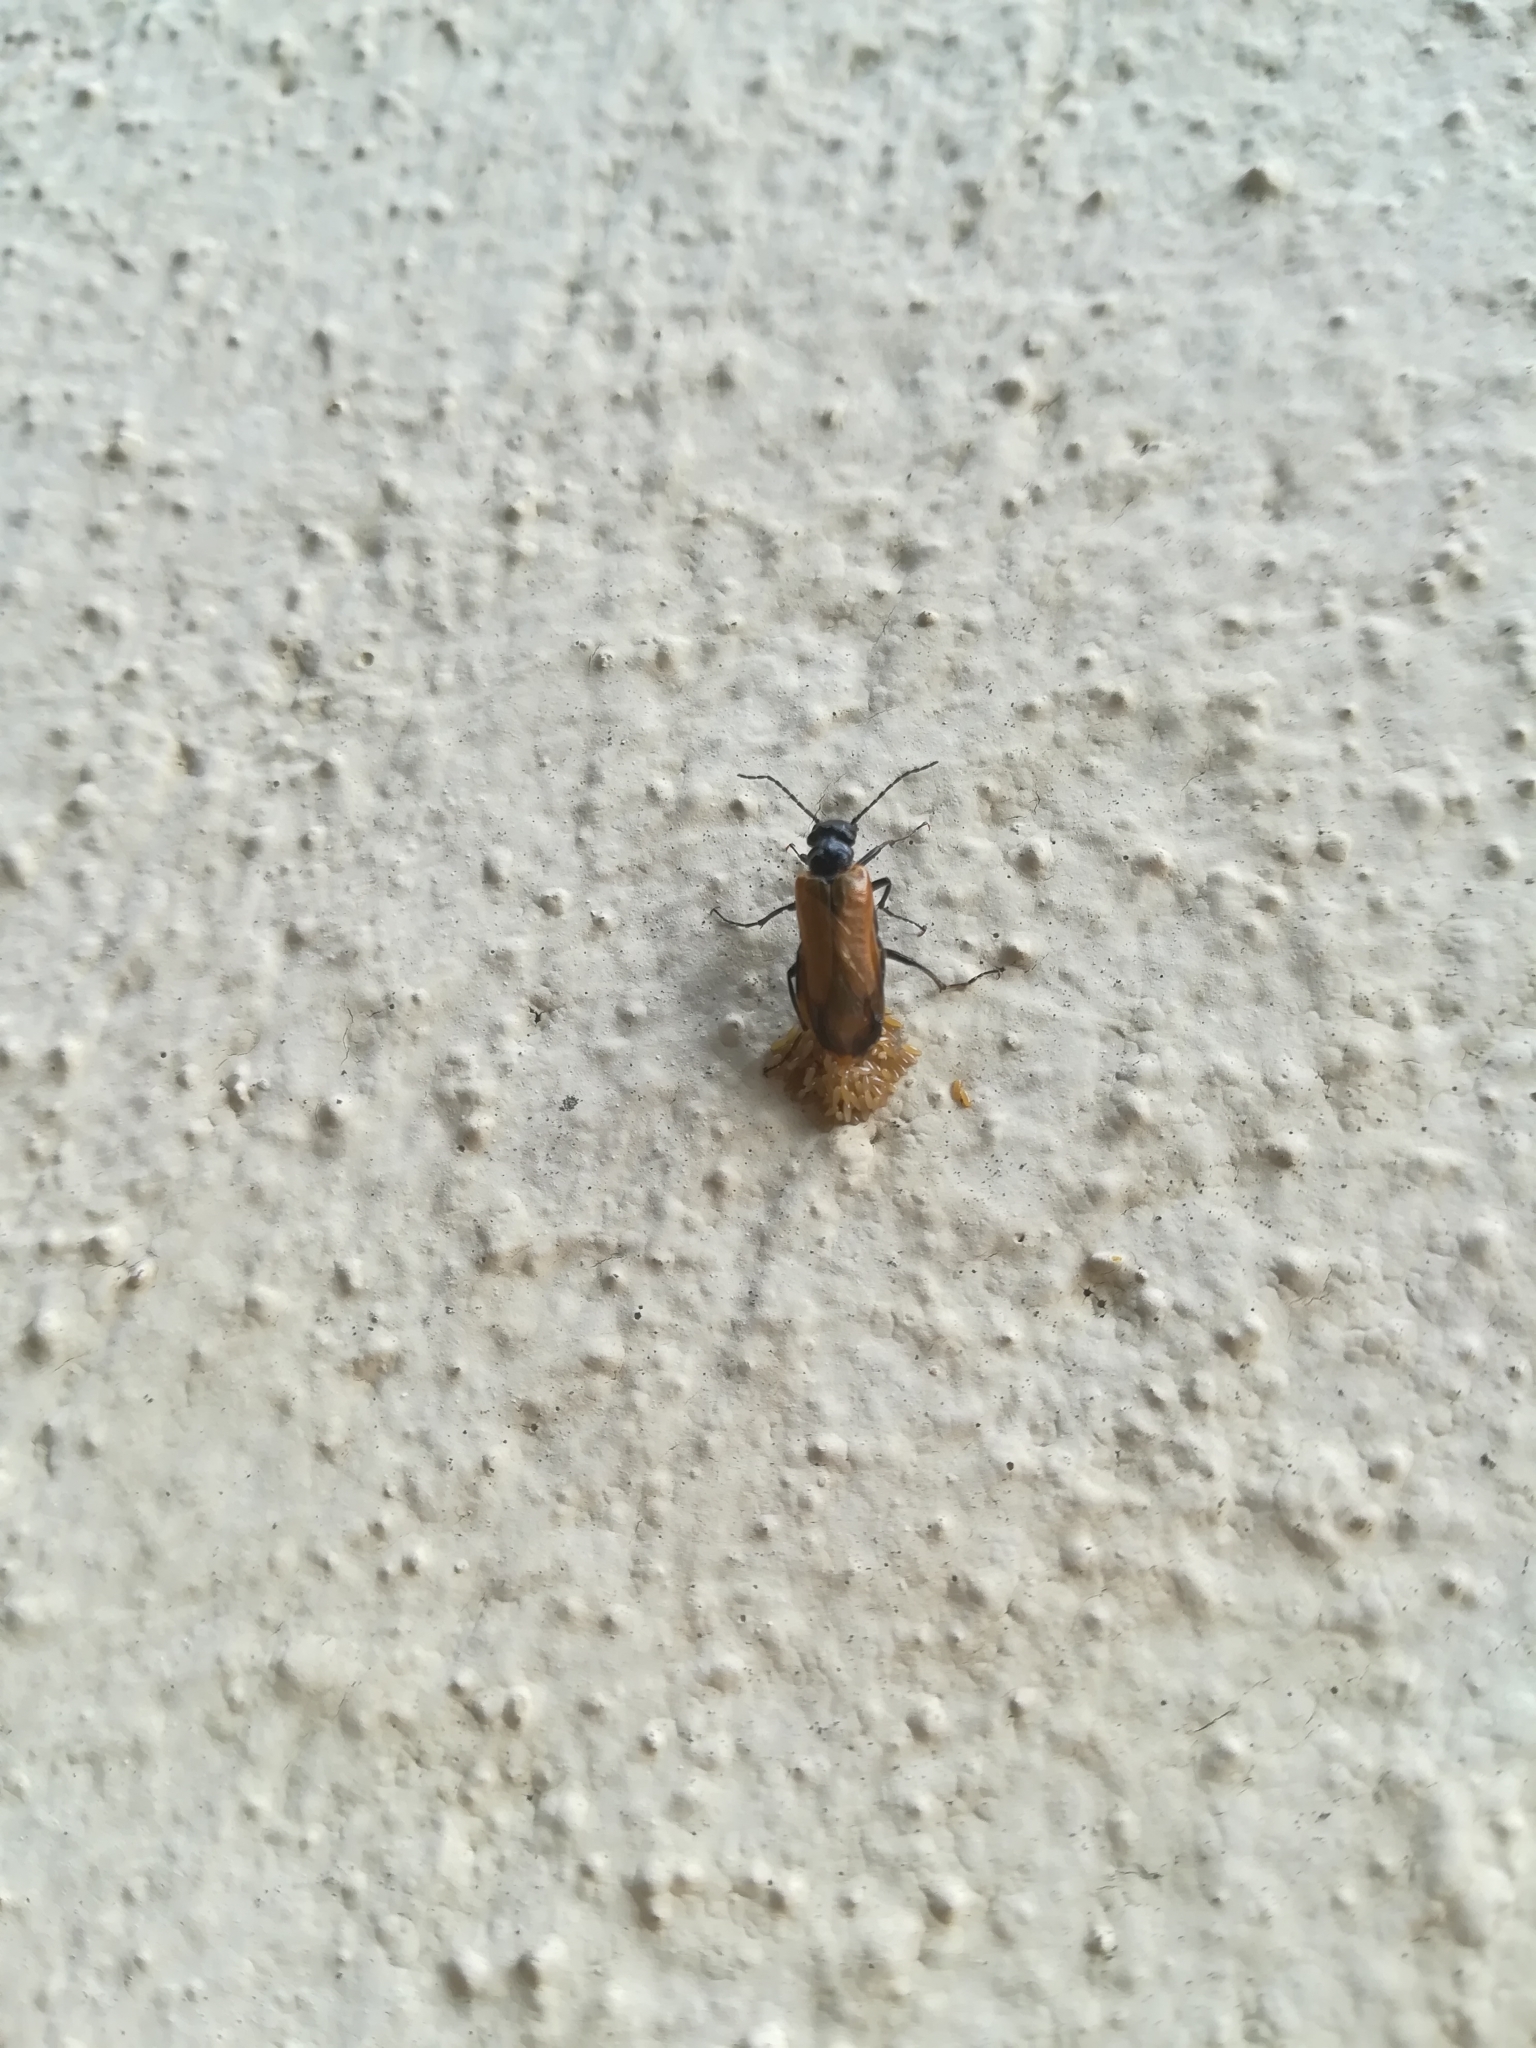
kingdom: Animalia
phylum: Arthropoda
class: Insecta
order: Coleoptera
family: Meloidae
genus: Stenoria
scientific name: Stenoria analis
